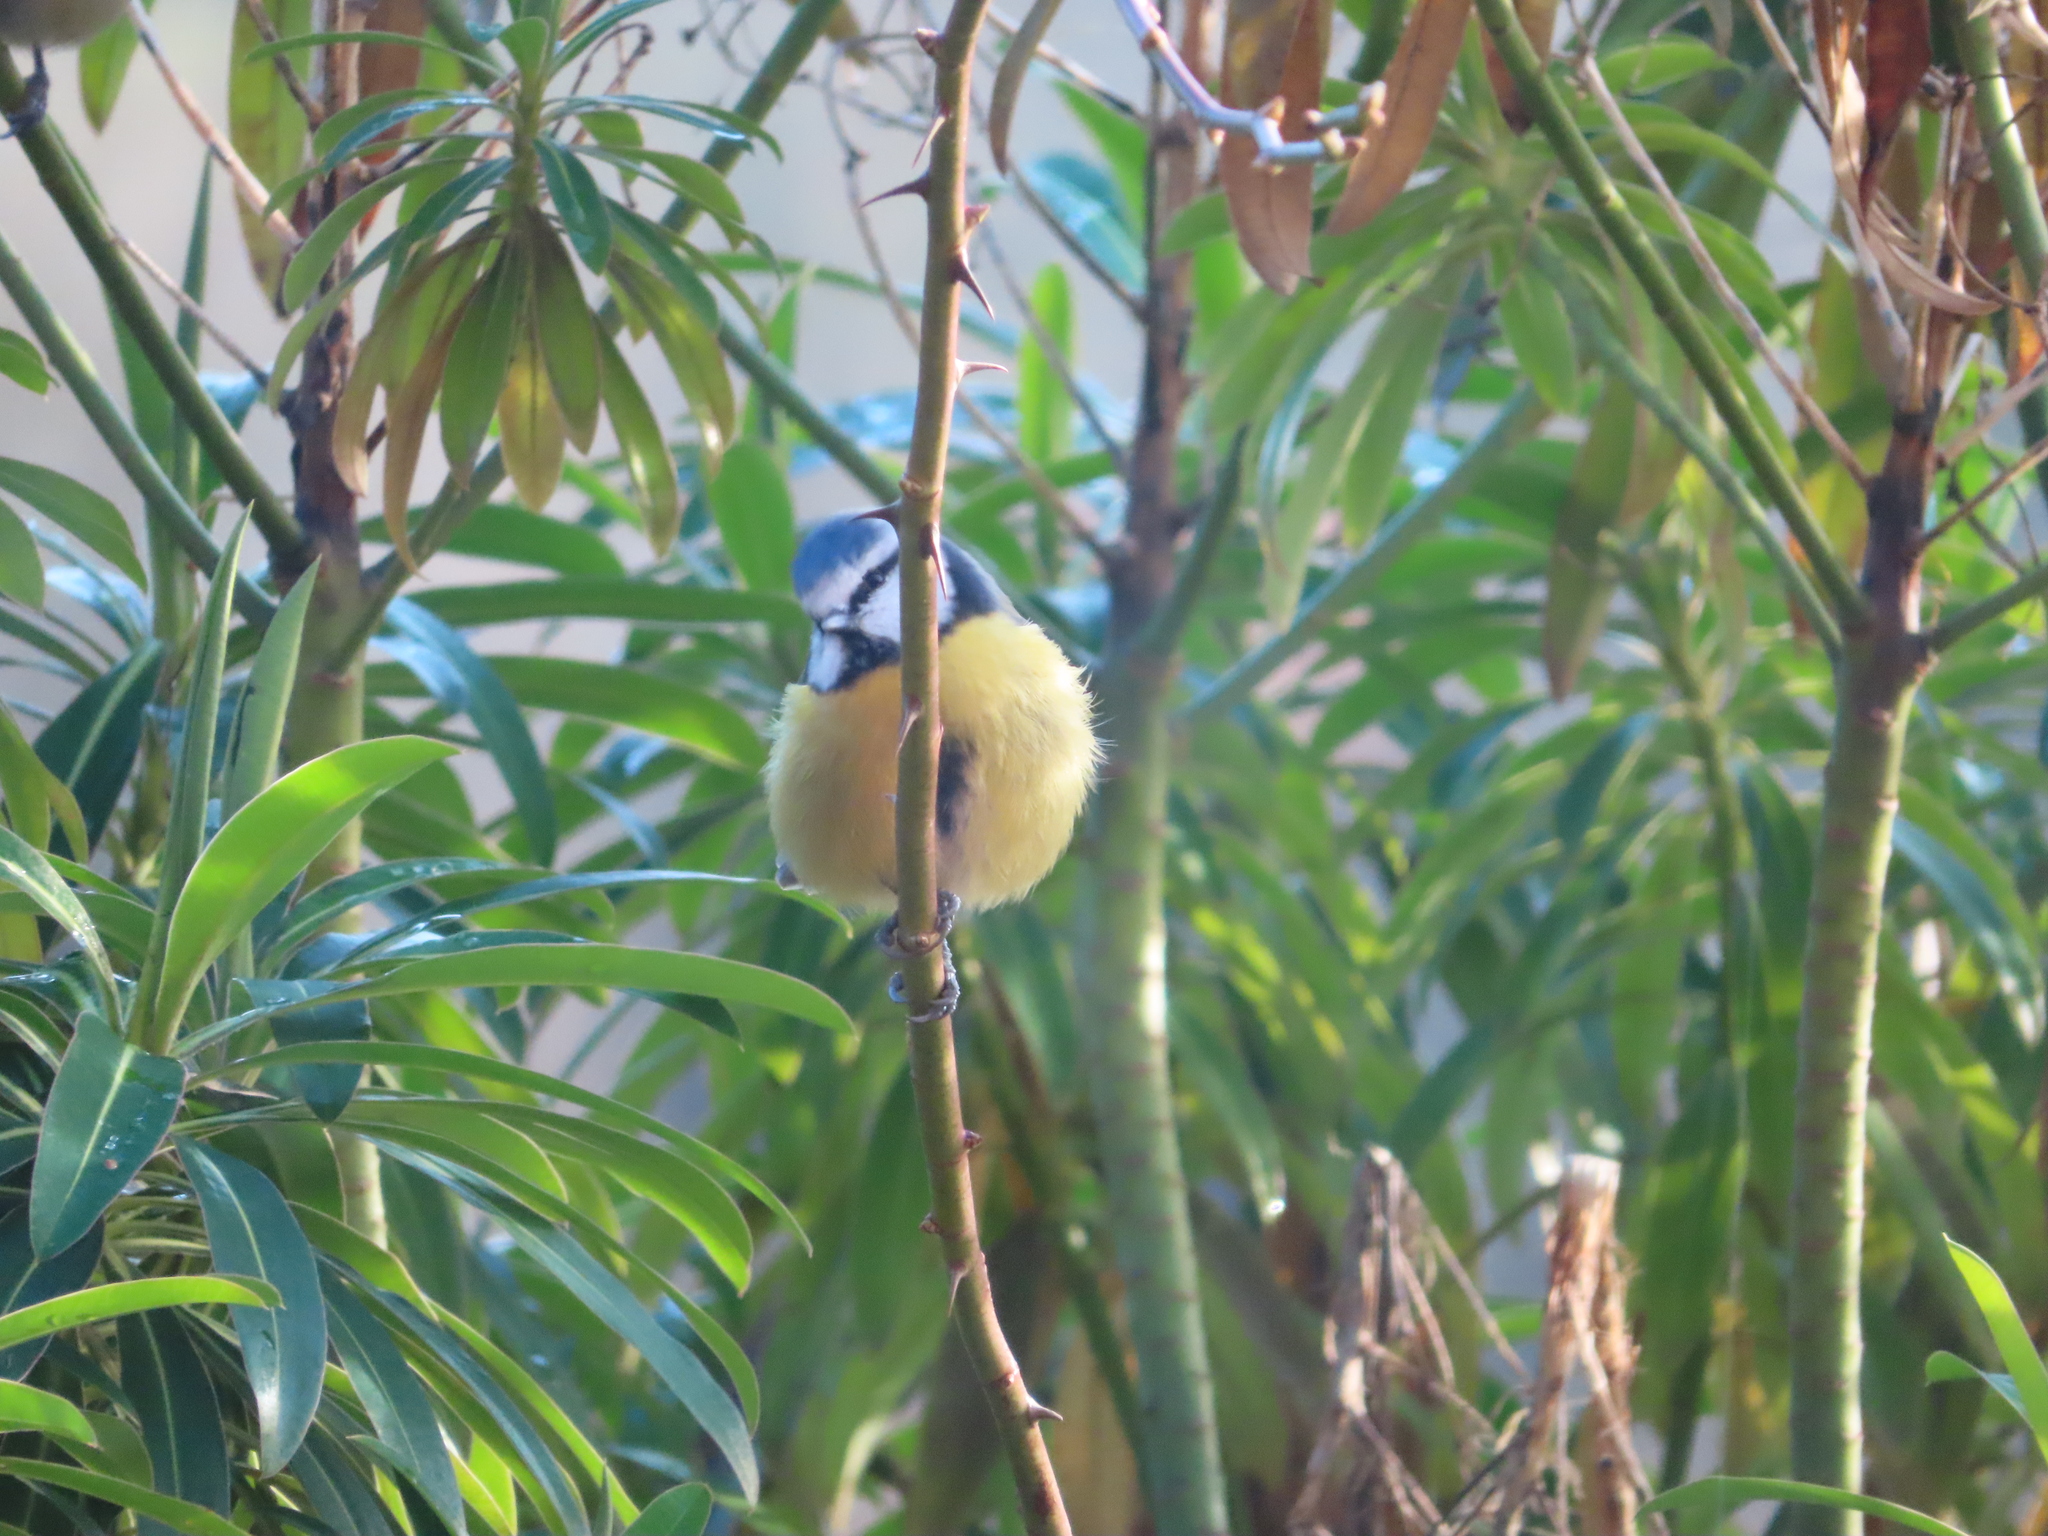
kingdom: Animalia
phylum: Chordata
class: Aves
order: Passeriformes
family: Paridae
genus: Cyanistes
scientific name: Cyanistes caeruleus
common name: Eurasian blue tit
